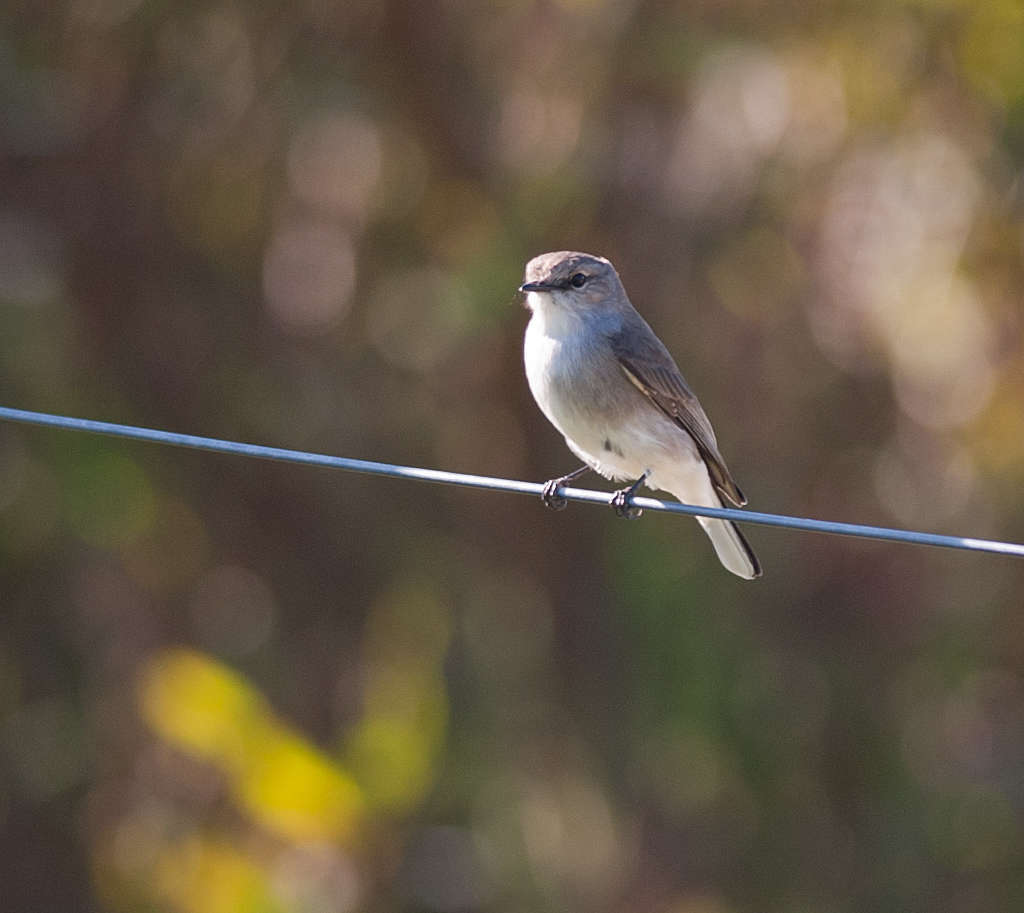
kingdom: Animalia
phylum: Chordata
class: Aves
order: Passeriformes
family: Petroicidae
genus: Microeca
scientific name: Microeca fascinans
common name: Jacky winter
